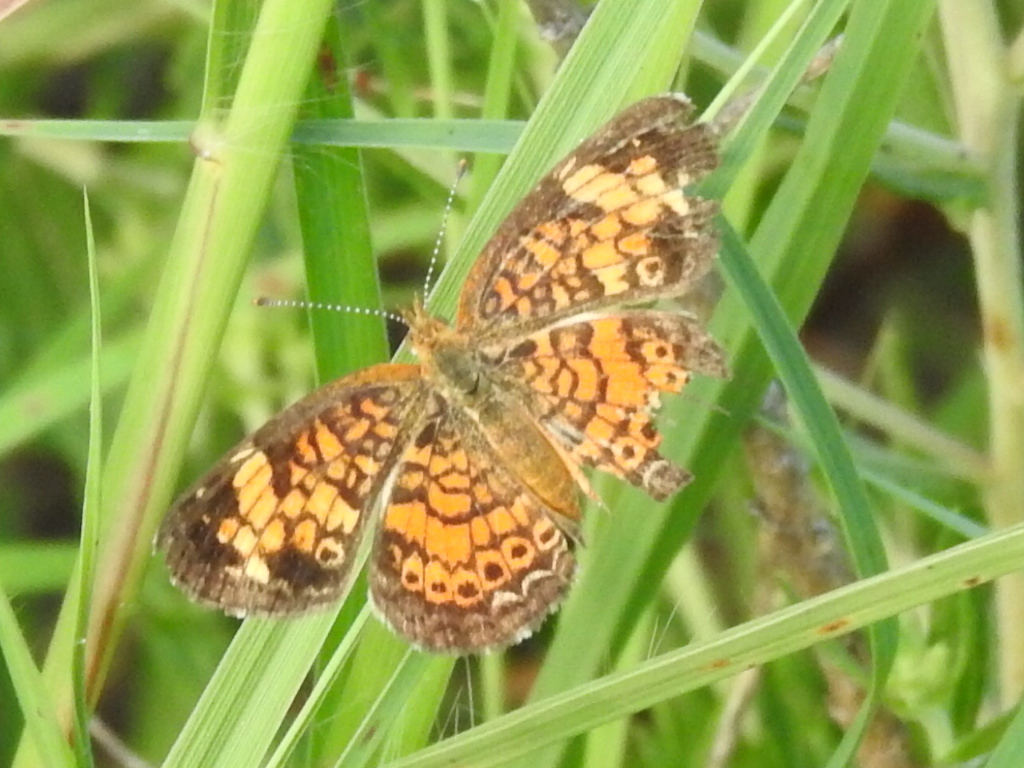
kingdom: Animalia
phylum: Arthropoda
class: Insecta
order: Lepidoptera
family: Nymphalidae
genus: Phyciodes
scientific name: Phyciodes tharos
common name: Pearl crescent
